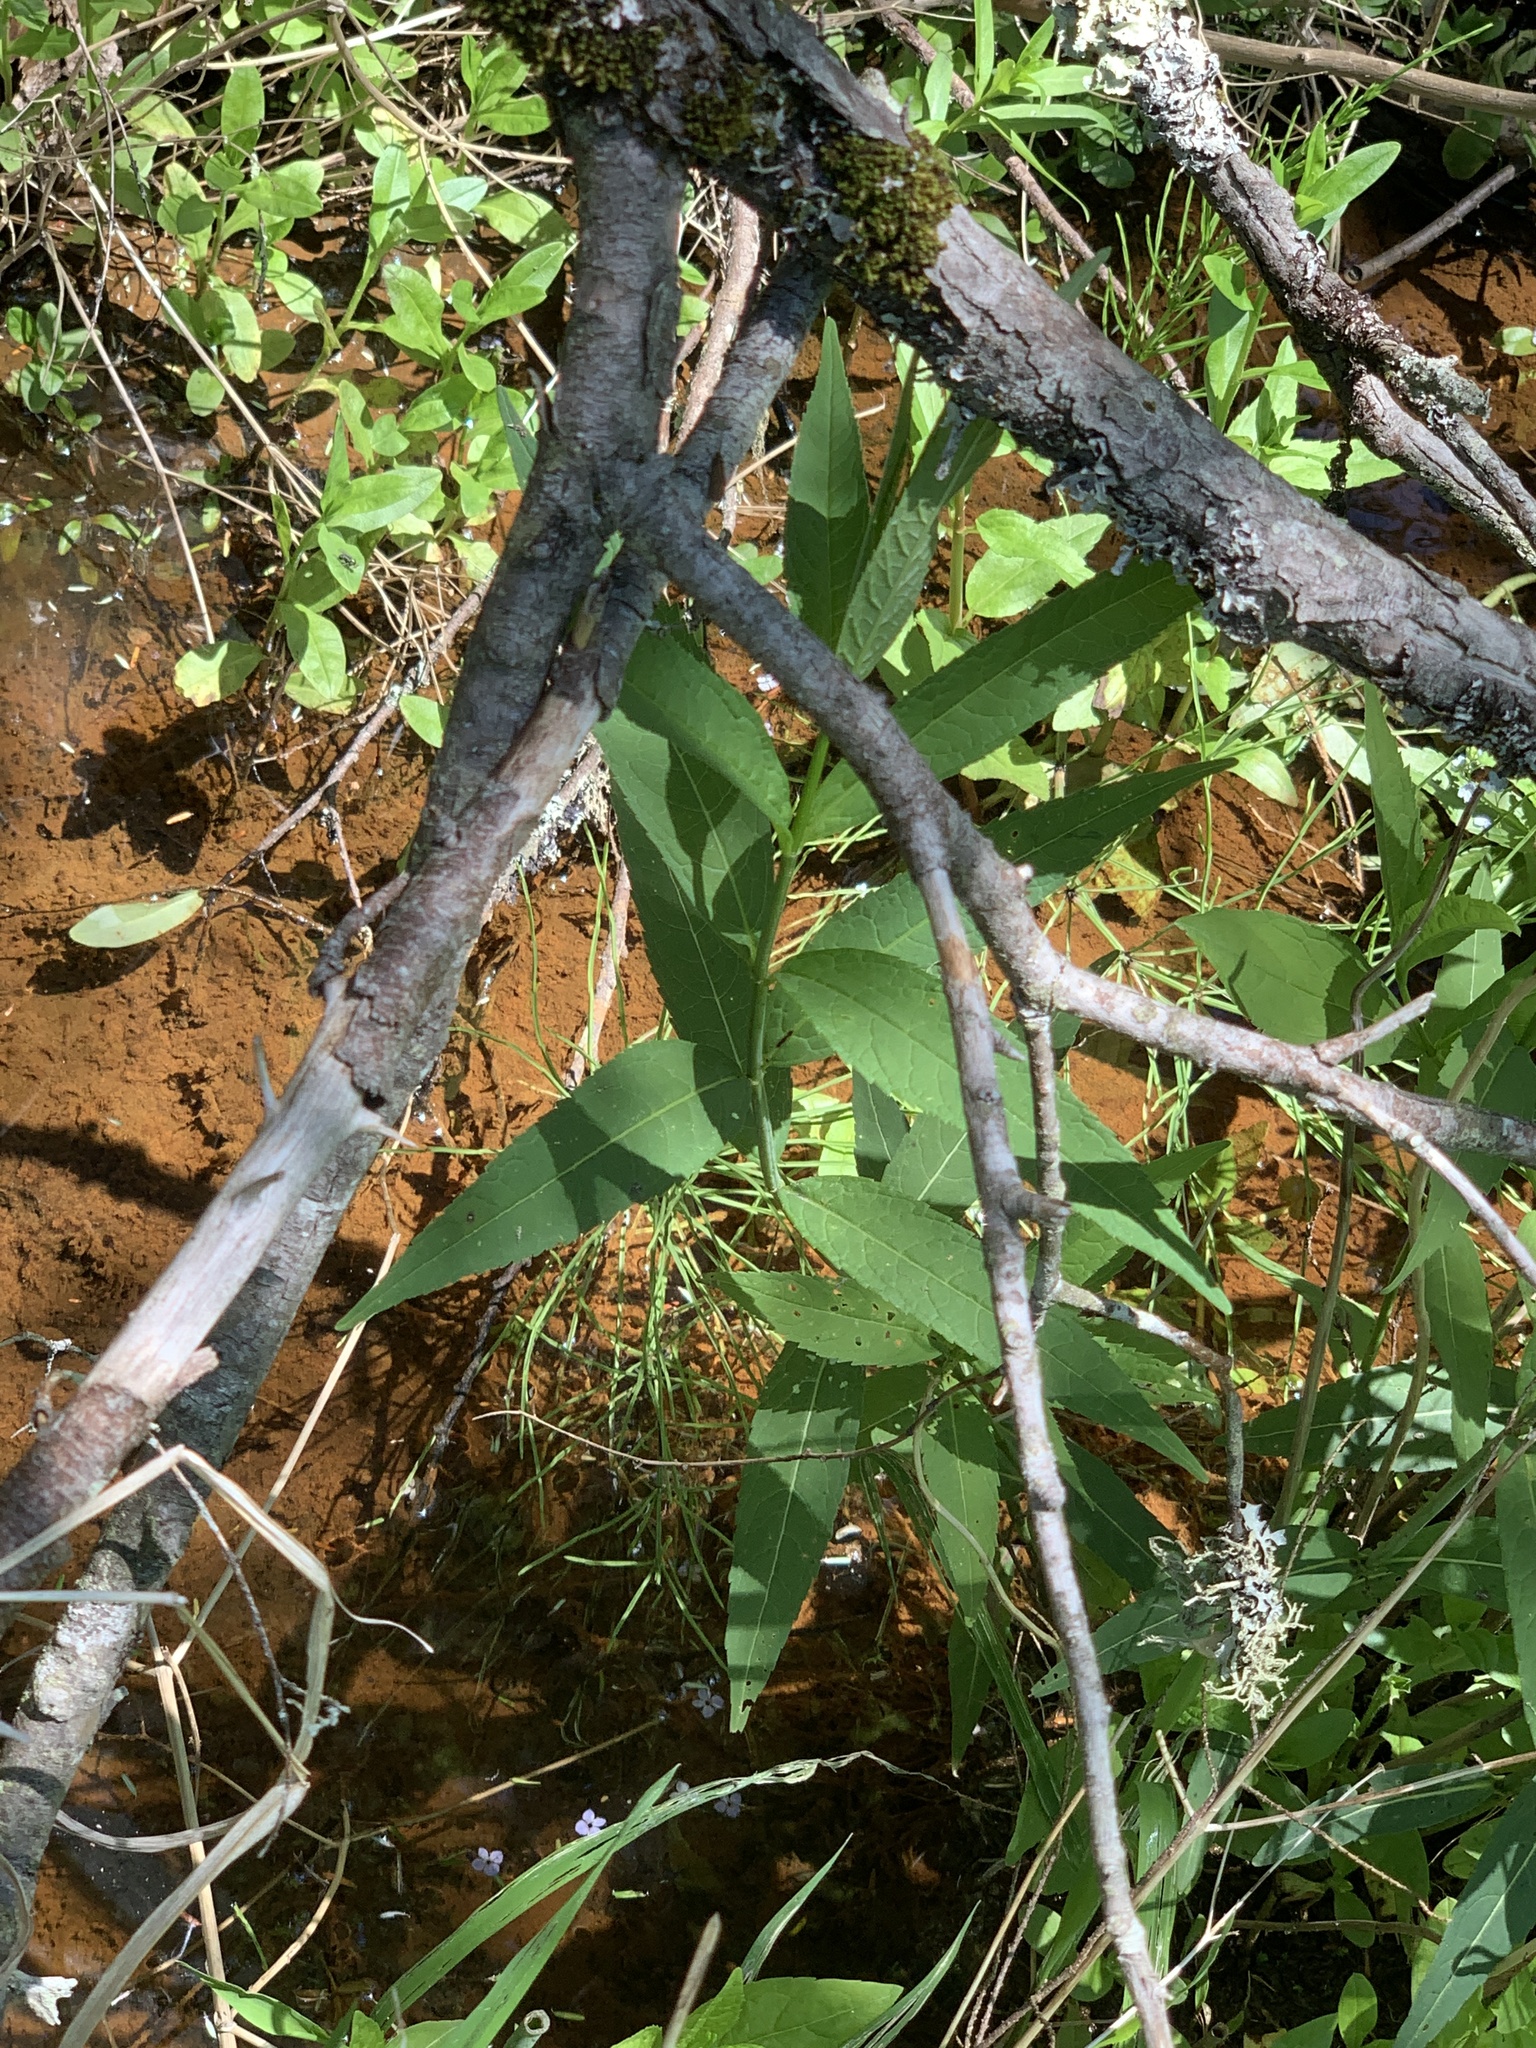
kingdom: Plantae
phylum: Tracheophyta
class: Magnoliopsida
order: Lamiales
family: Plantaginaceae
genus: Chelone
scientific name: Chelone glabra
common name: Snakehead
